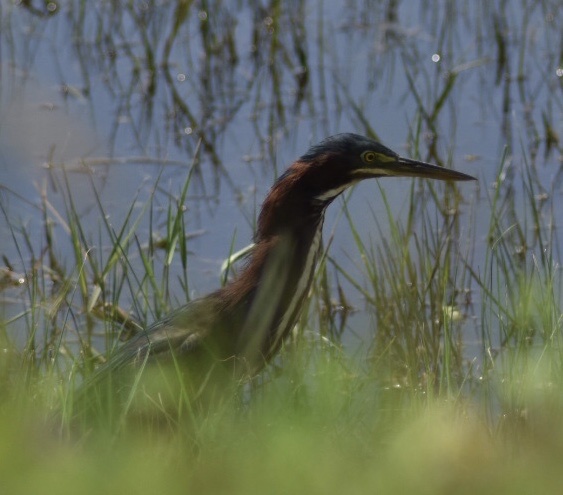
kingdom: Animalia
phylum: Chordata
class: Aves
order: Pelecaniformes
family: Ardeidae
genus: Butorides
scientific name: Butorides virescens
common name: Green heron
